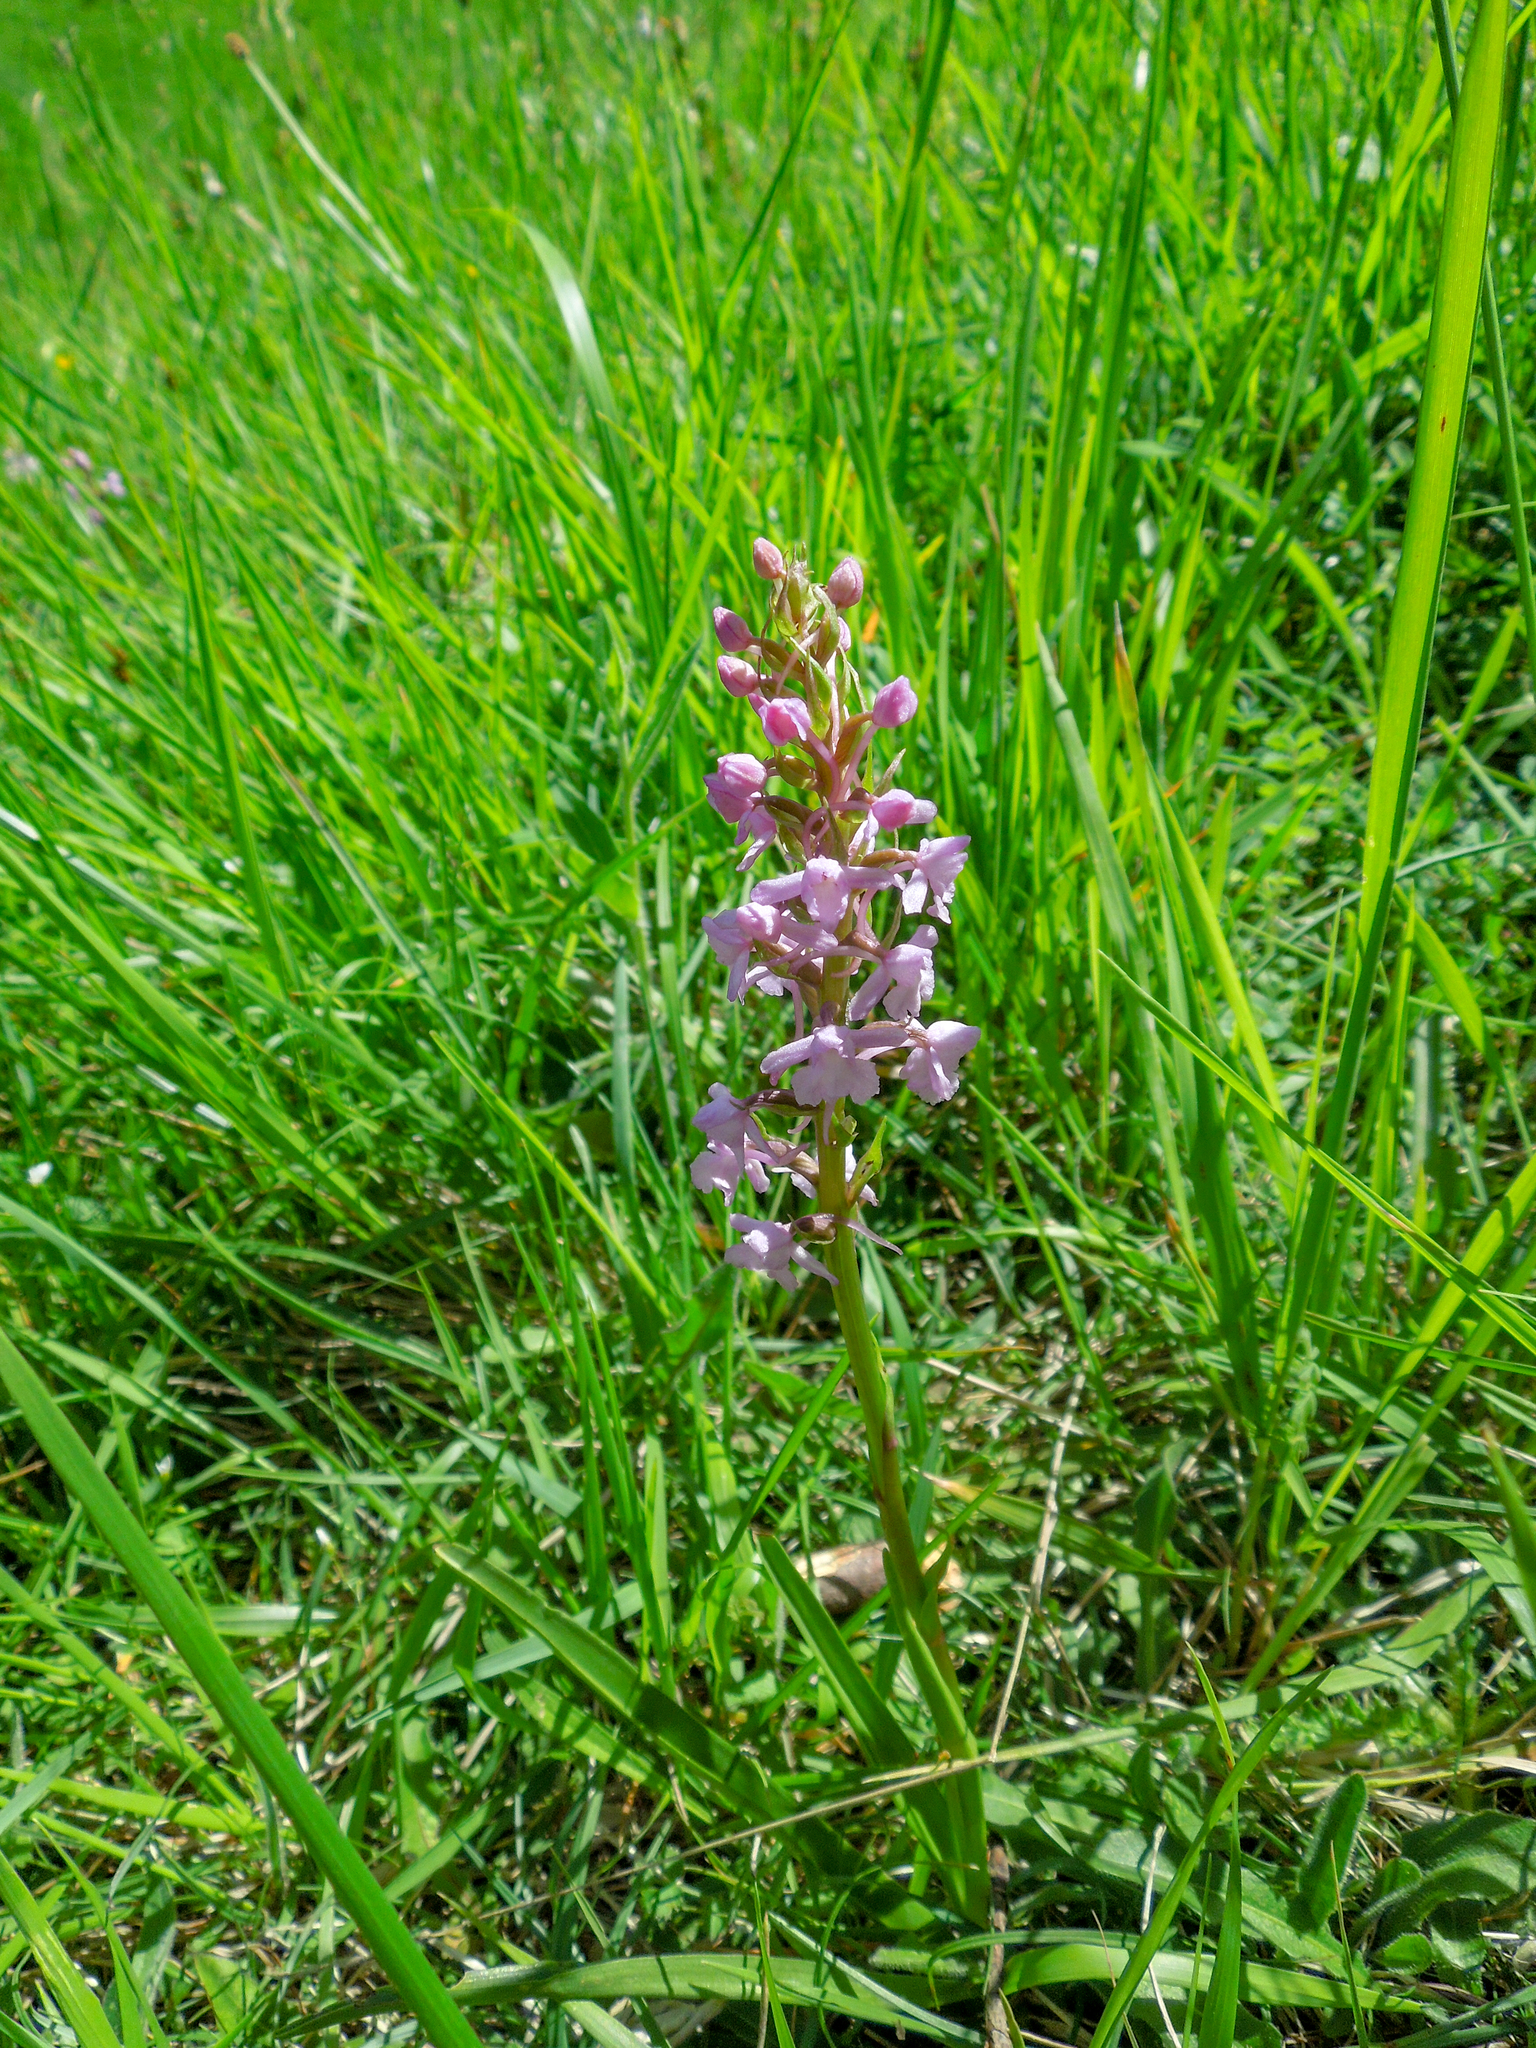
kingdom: Plantae
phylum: Tracheophyta
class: Liliopsida
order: Asparagales
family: Orchidaceae
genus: Gymnadenia
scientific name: Gymnadenia conopsea
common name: Fragrant orchid
